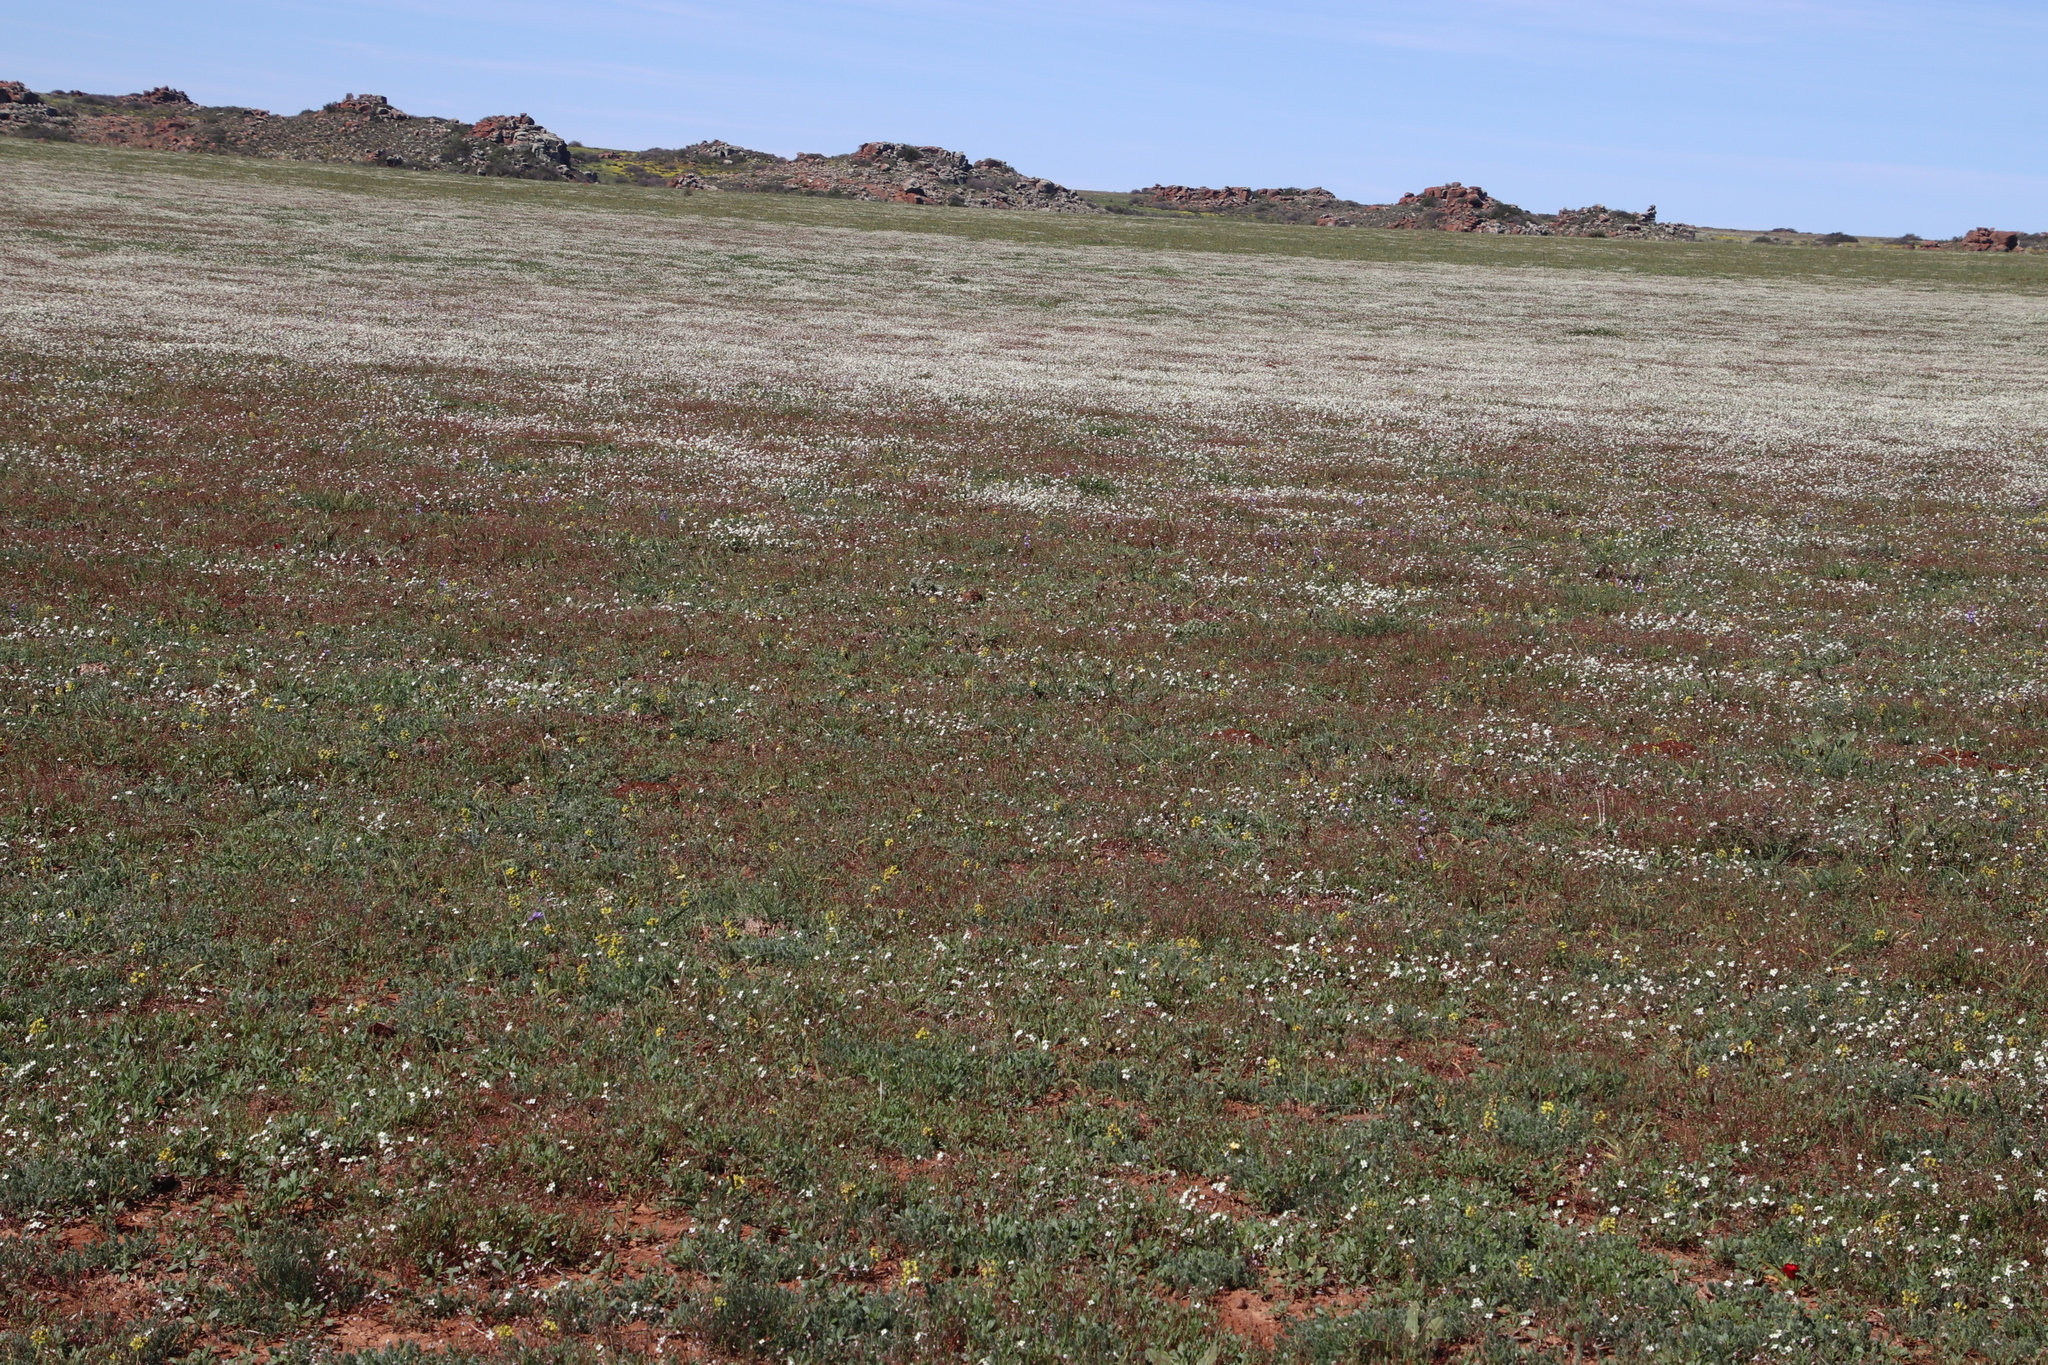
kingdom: Plantae
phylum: Tracheophyta
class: Magnoliopsida
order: Brassicales
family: Brassicaceae
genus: Heliophila
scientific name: Heliophila collina
